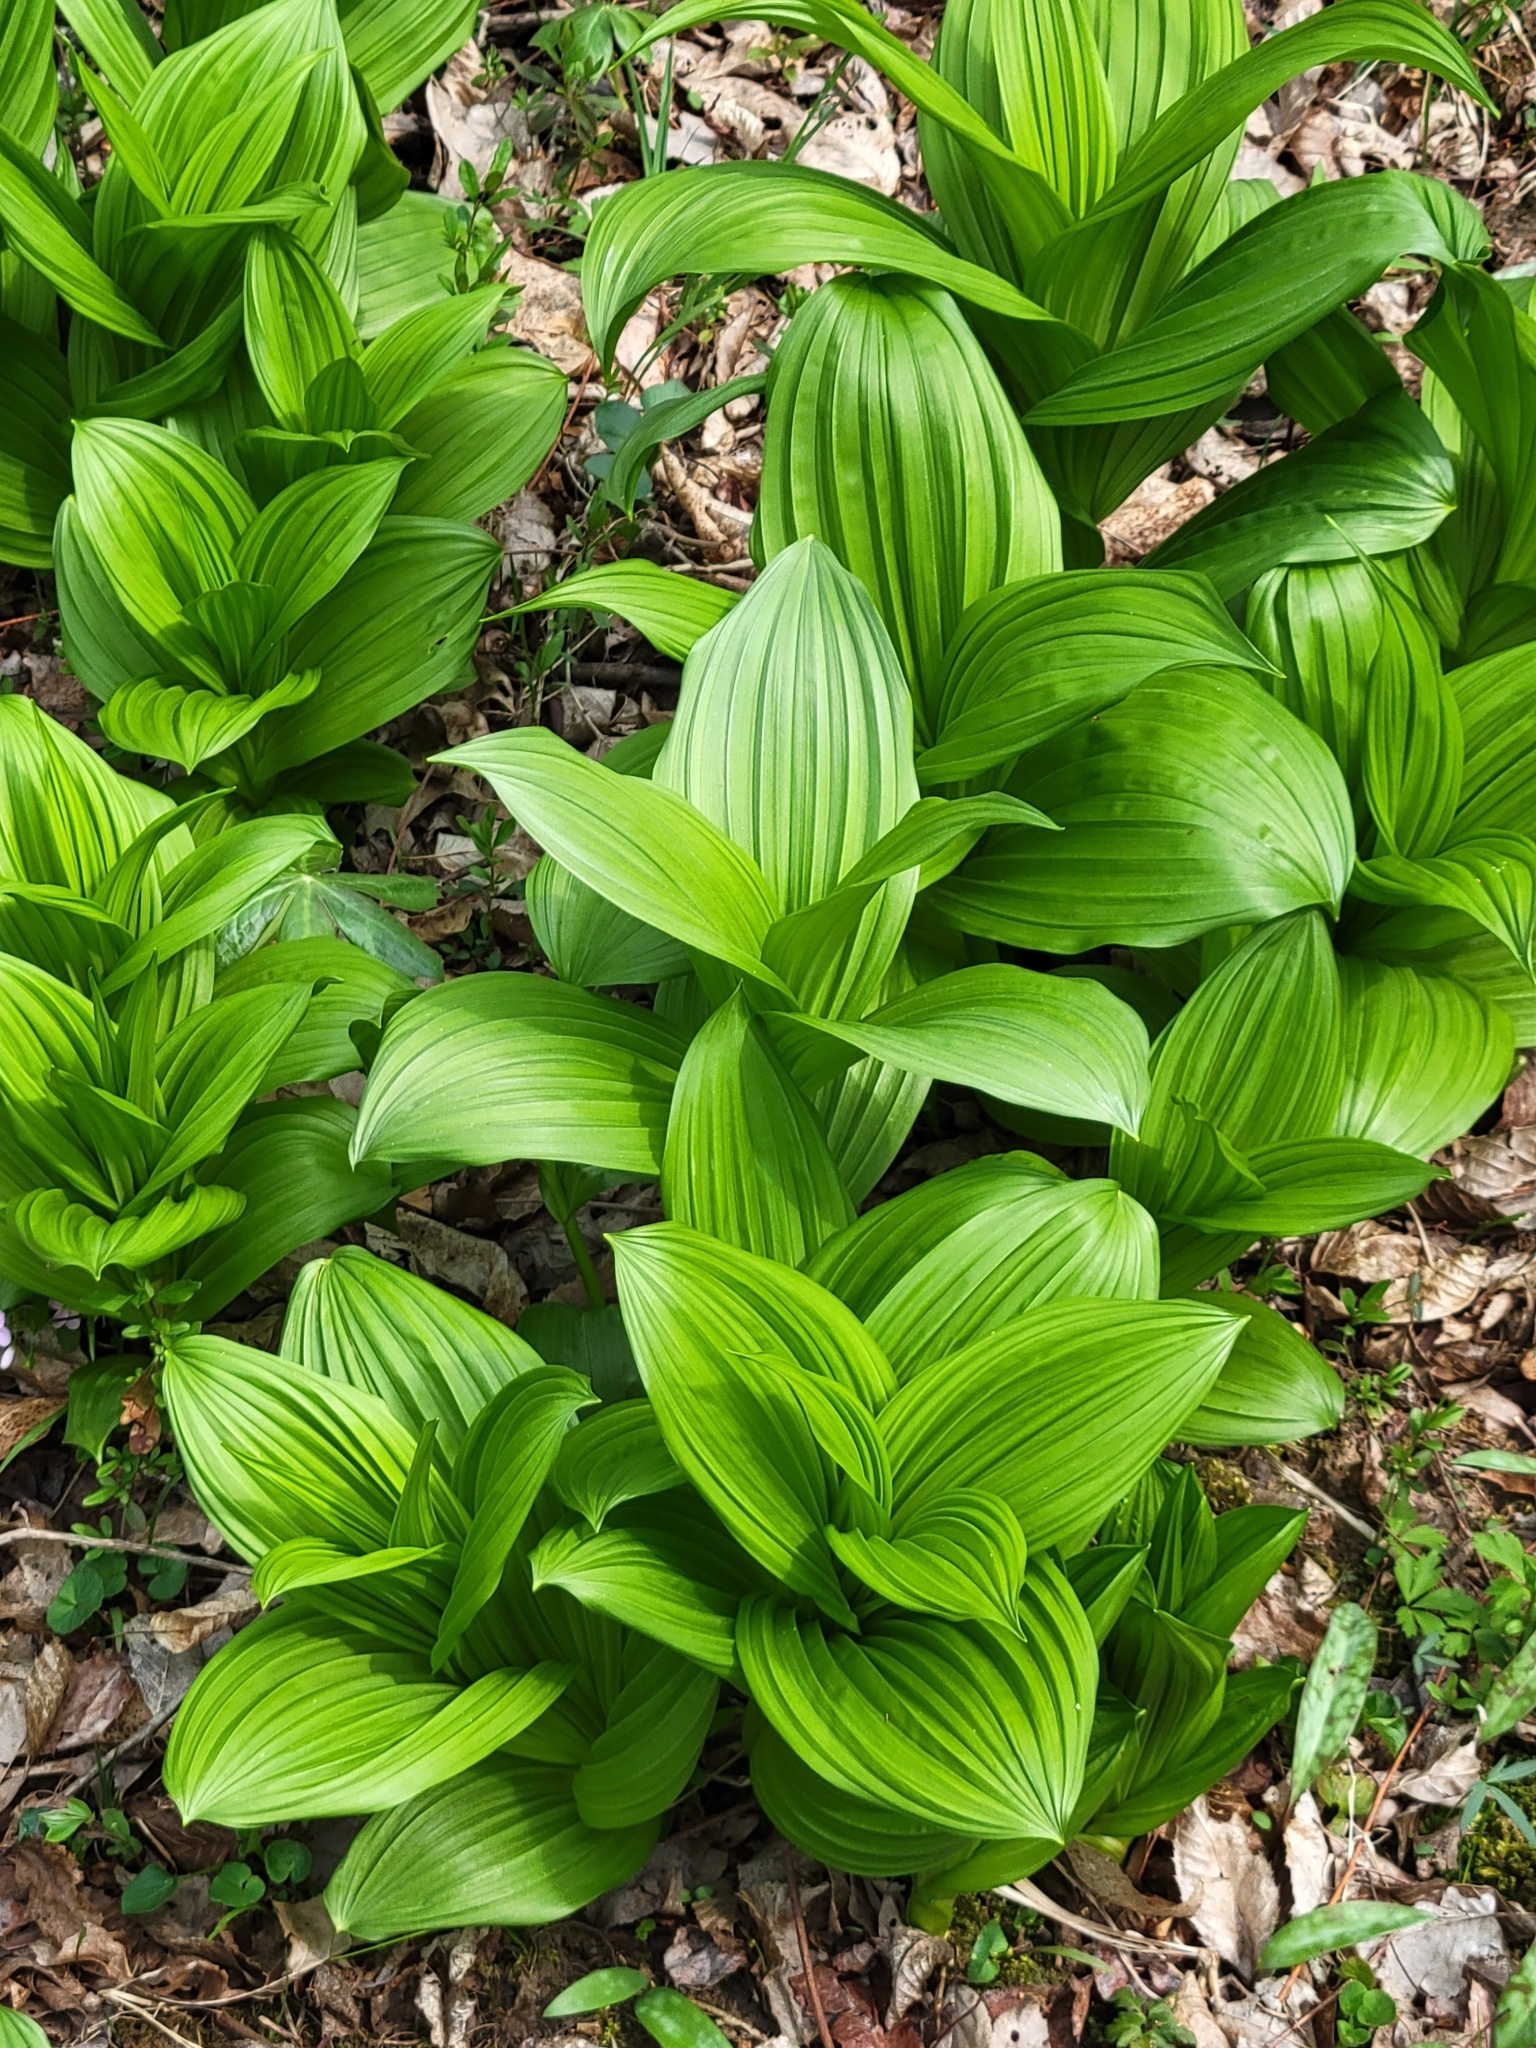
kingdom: Plantae
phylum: Tracheophyta
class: Liliopsida
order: Liliales
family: Melanthiaceae
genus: Veratrum
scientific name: Veratrum viride
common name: American false hellebore
